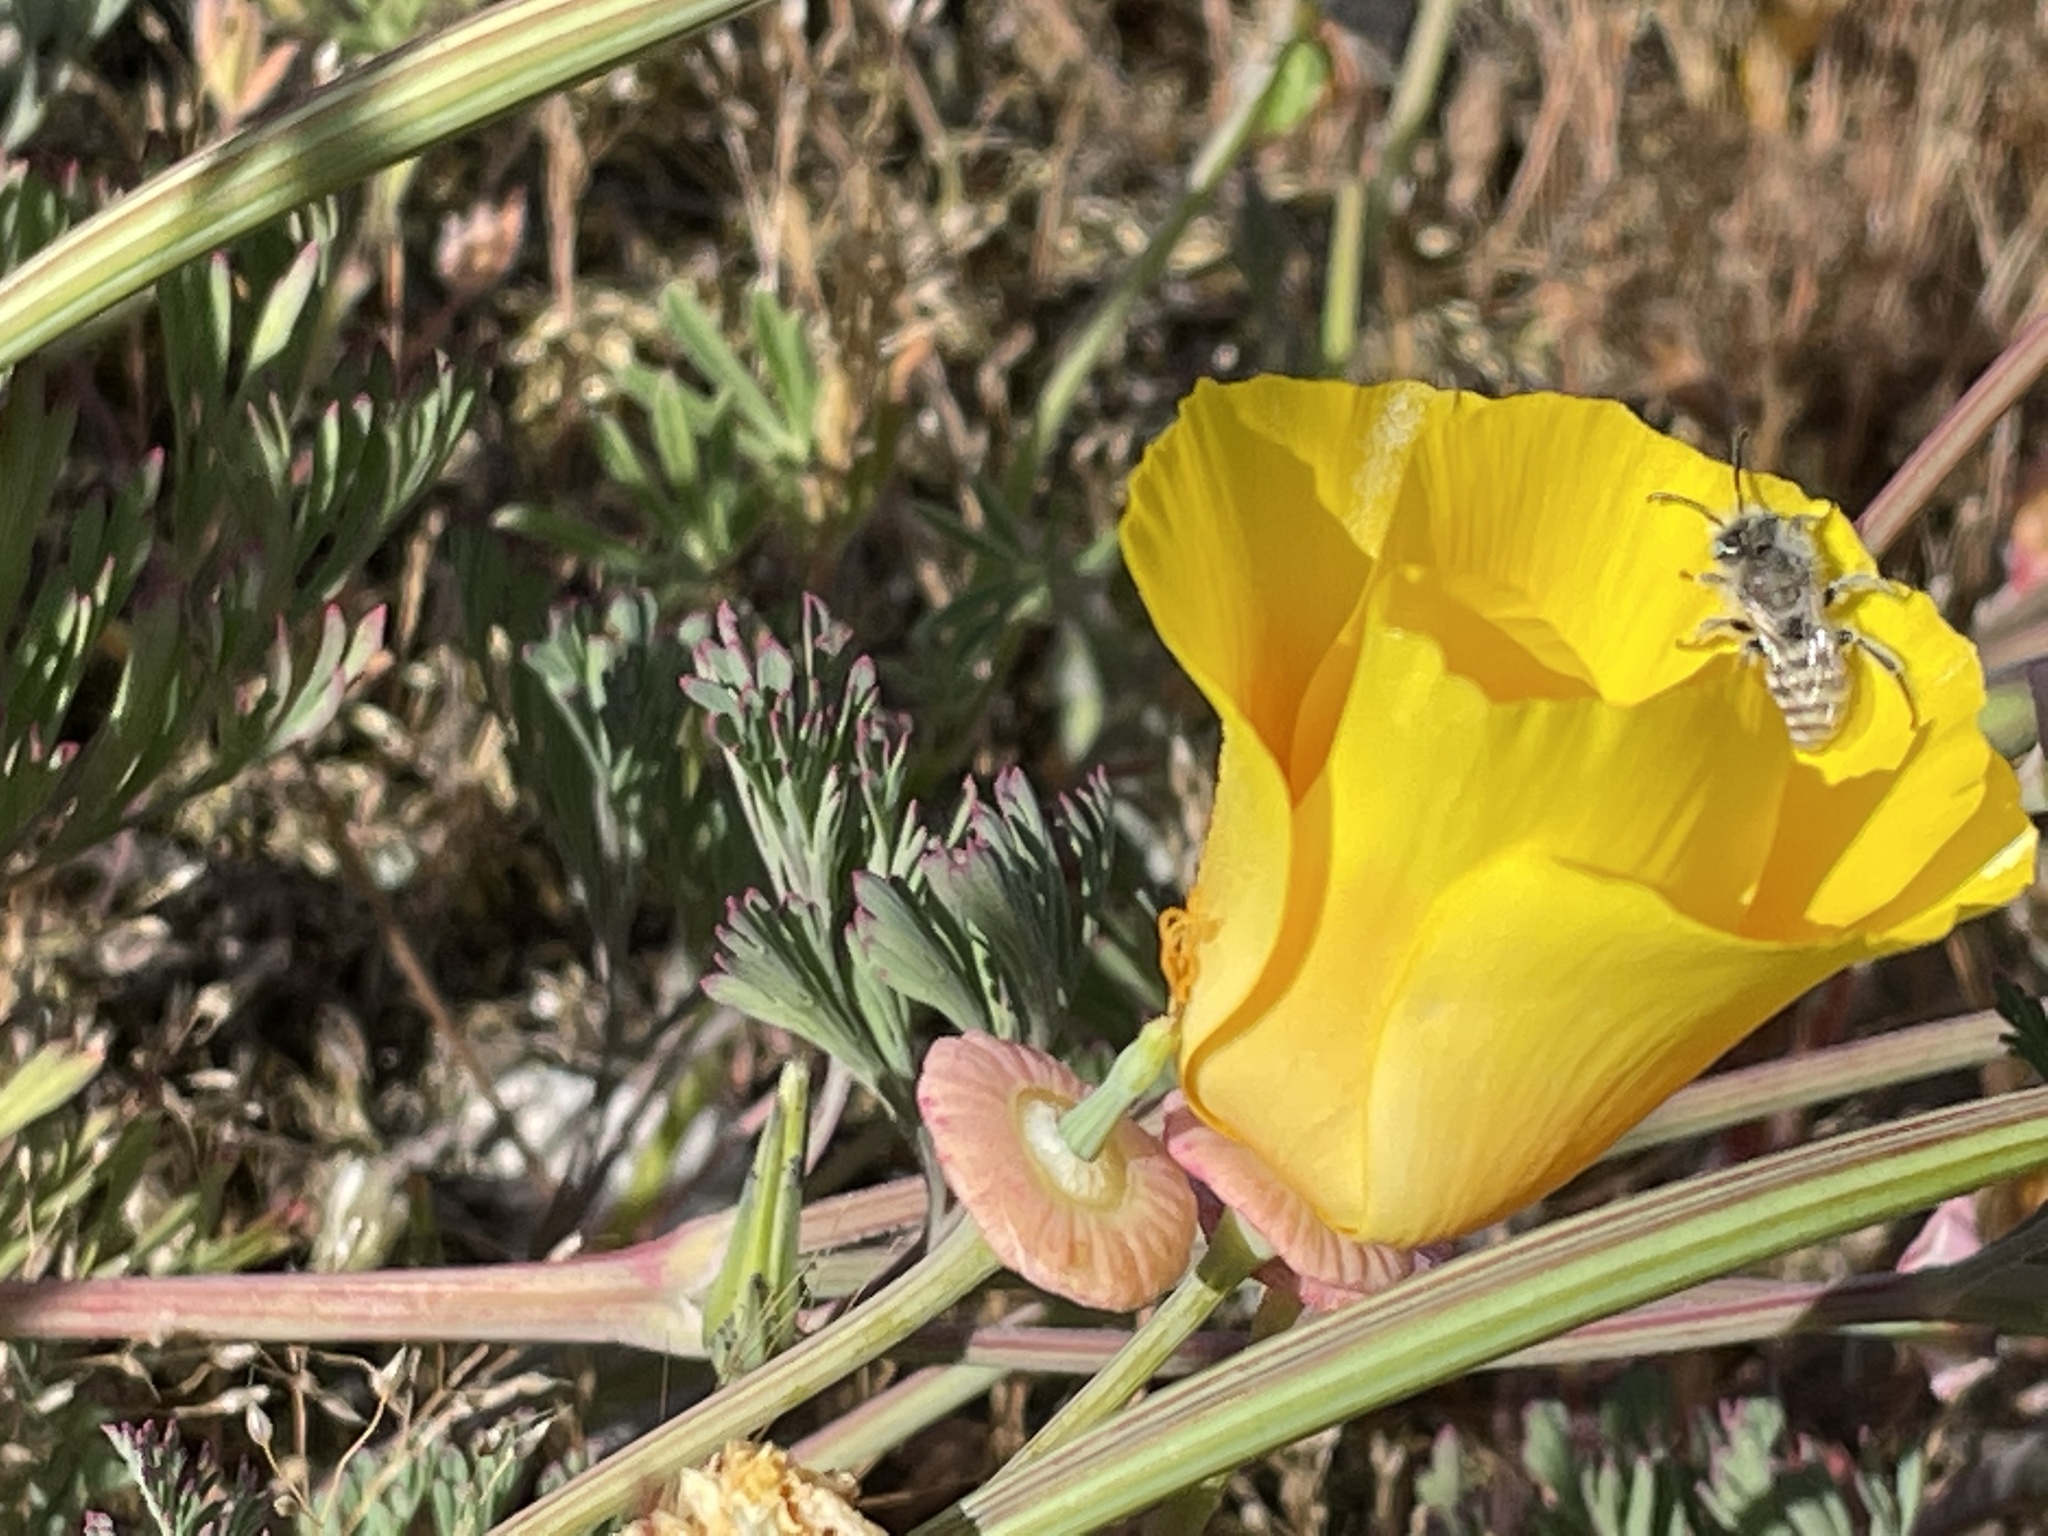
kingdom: Plantae
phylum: Tracheophyta
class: Magnoliopsida
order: Ranunculales
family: Papaveraceae
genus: Eschscholzia
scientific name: Eschscholzia californica
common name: California poppy
